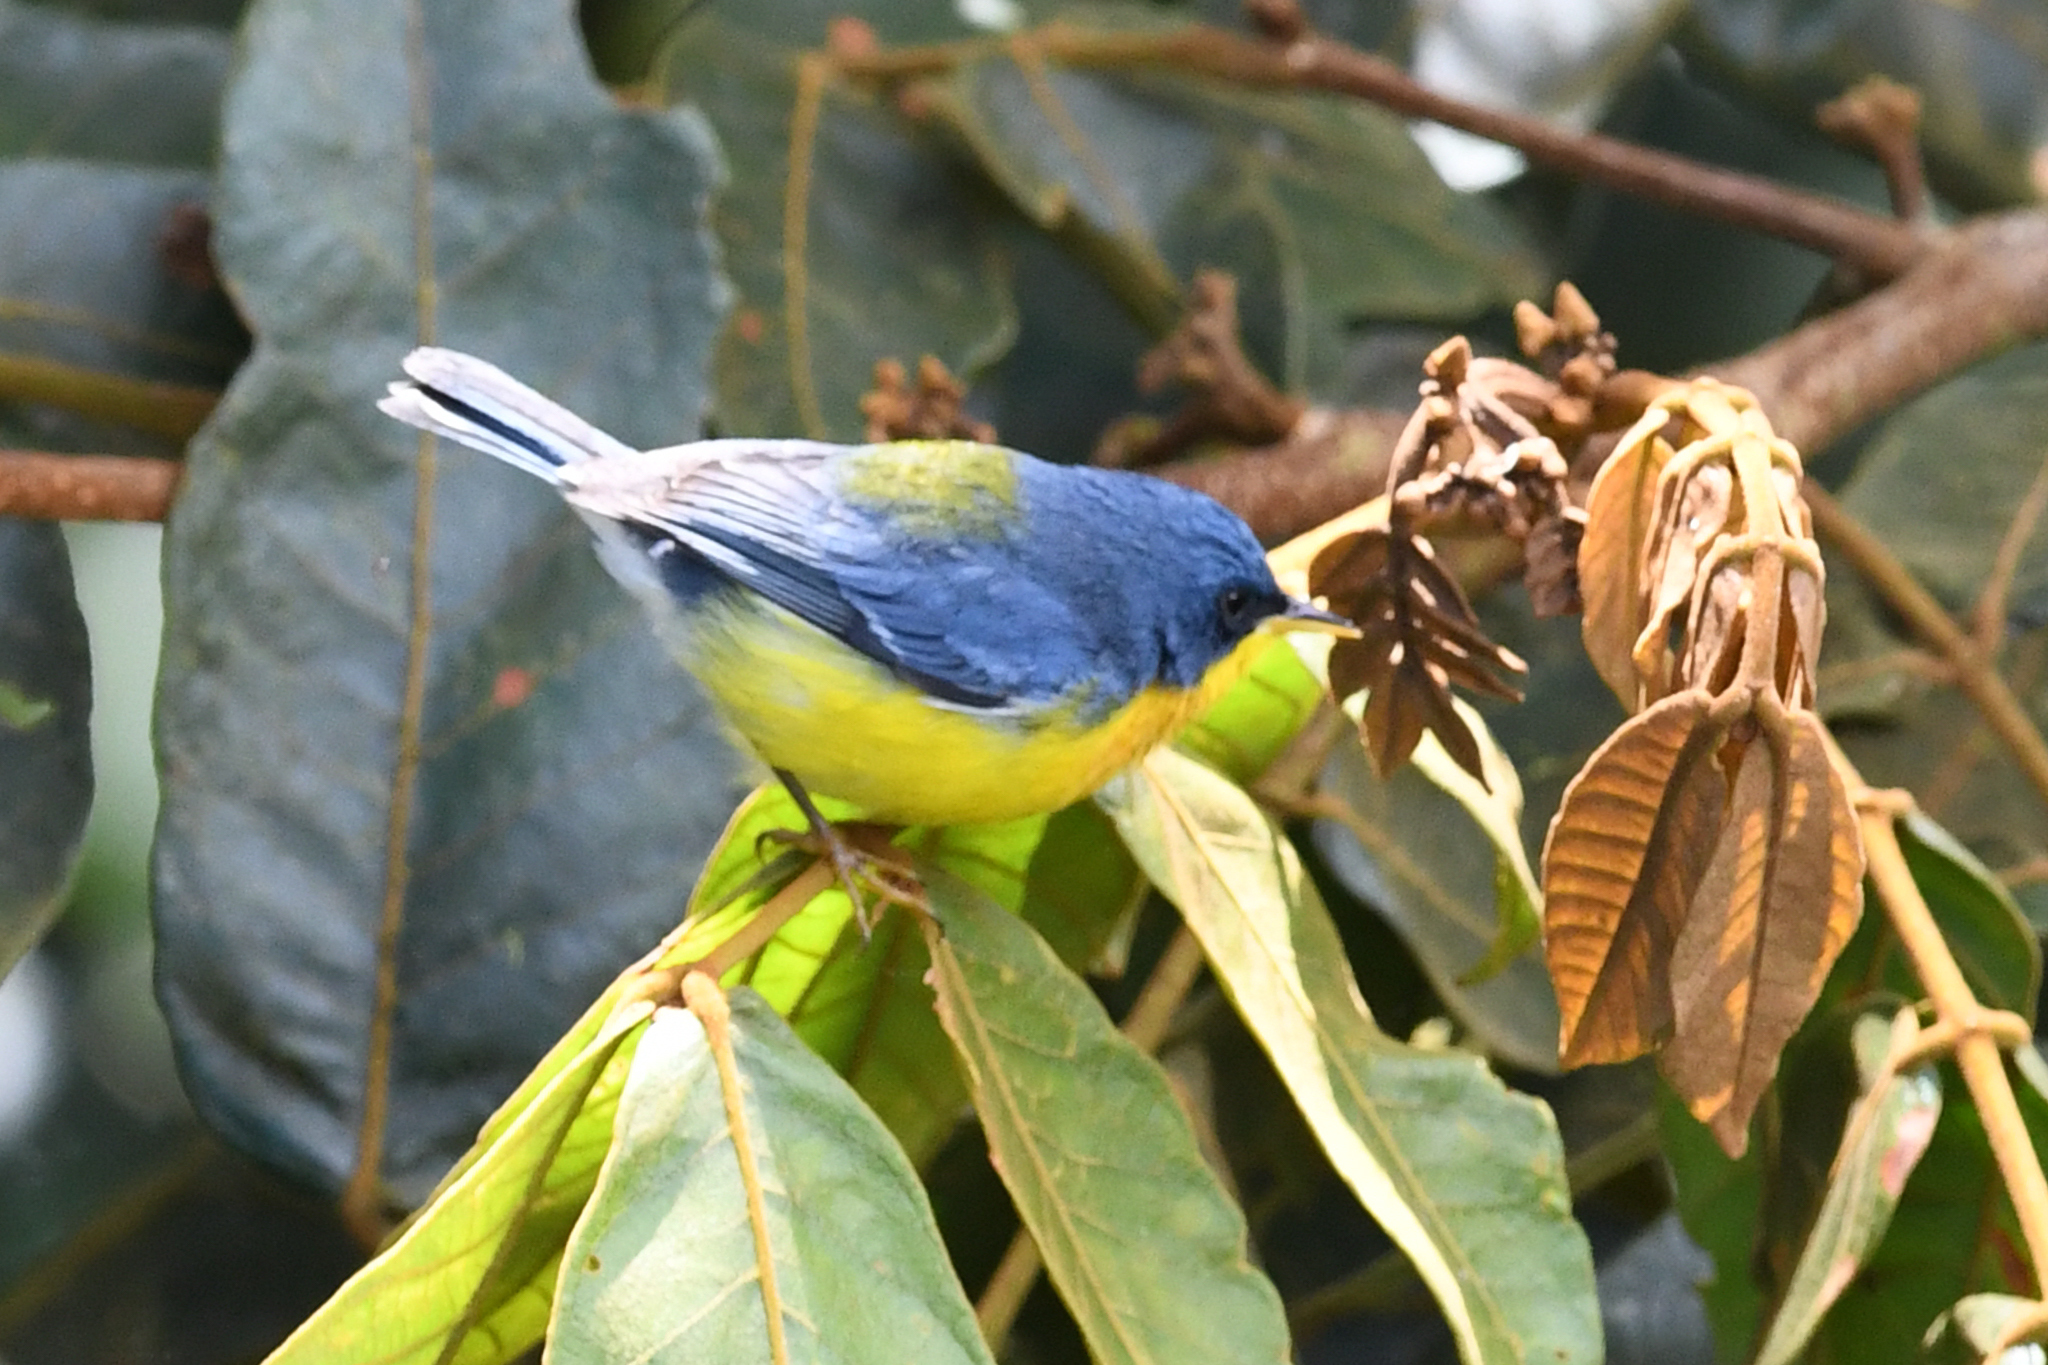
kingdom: Animalia
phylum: Chordata
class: Aves
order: Passeriformes
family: Parulidae
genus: Setophaga
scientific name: Setophaga pitiayumi
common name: Tropical parula
